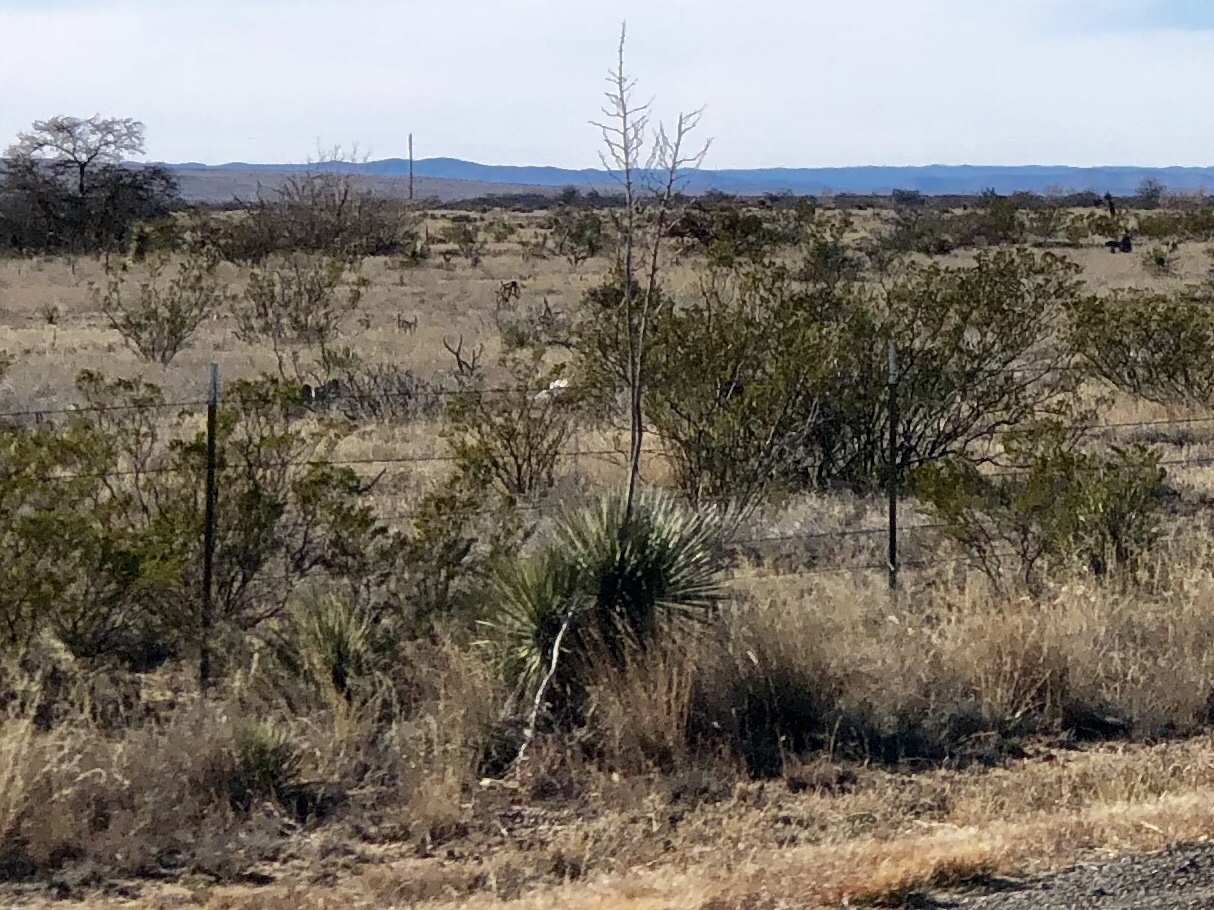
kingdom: Plantae
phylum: Tracheophyta
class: Liliopsida
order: Asparagales
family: Asparagaceae
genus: Yucca
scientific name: Yucca elata
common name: Palmella
